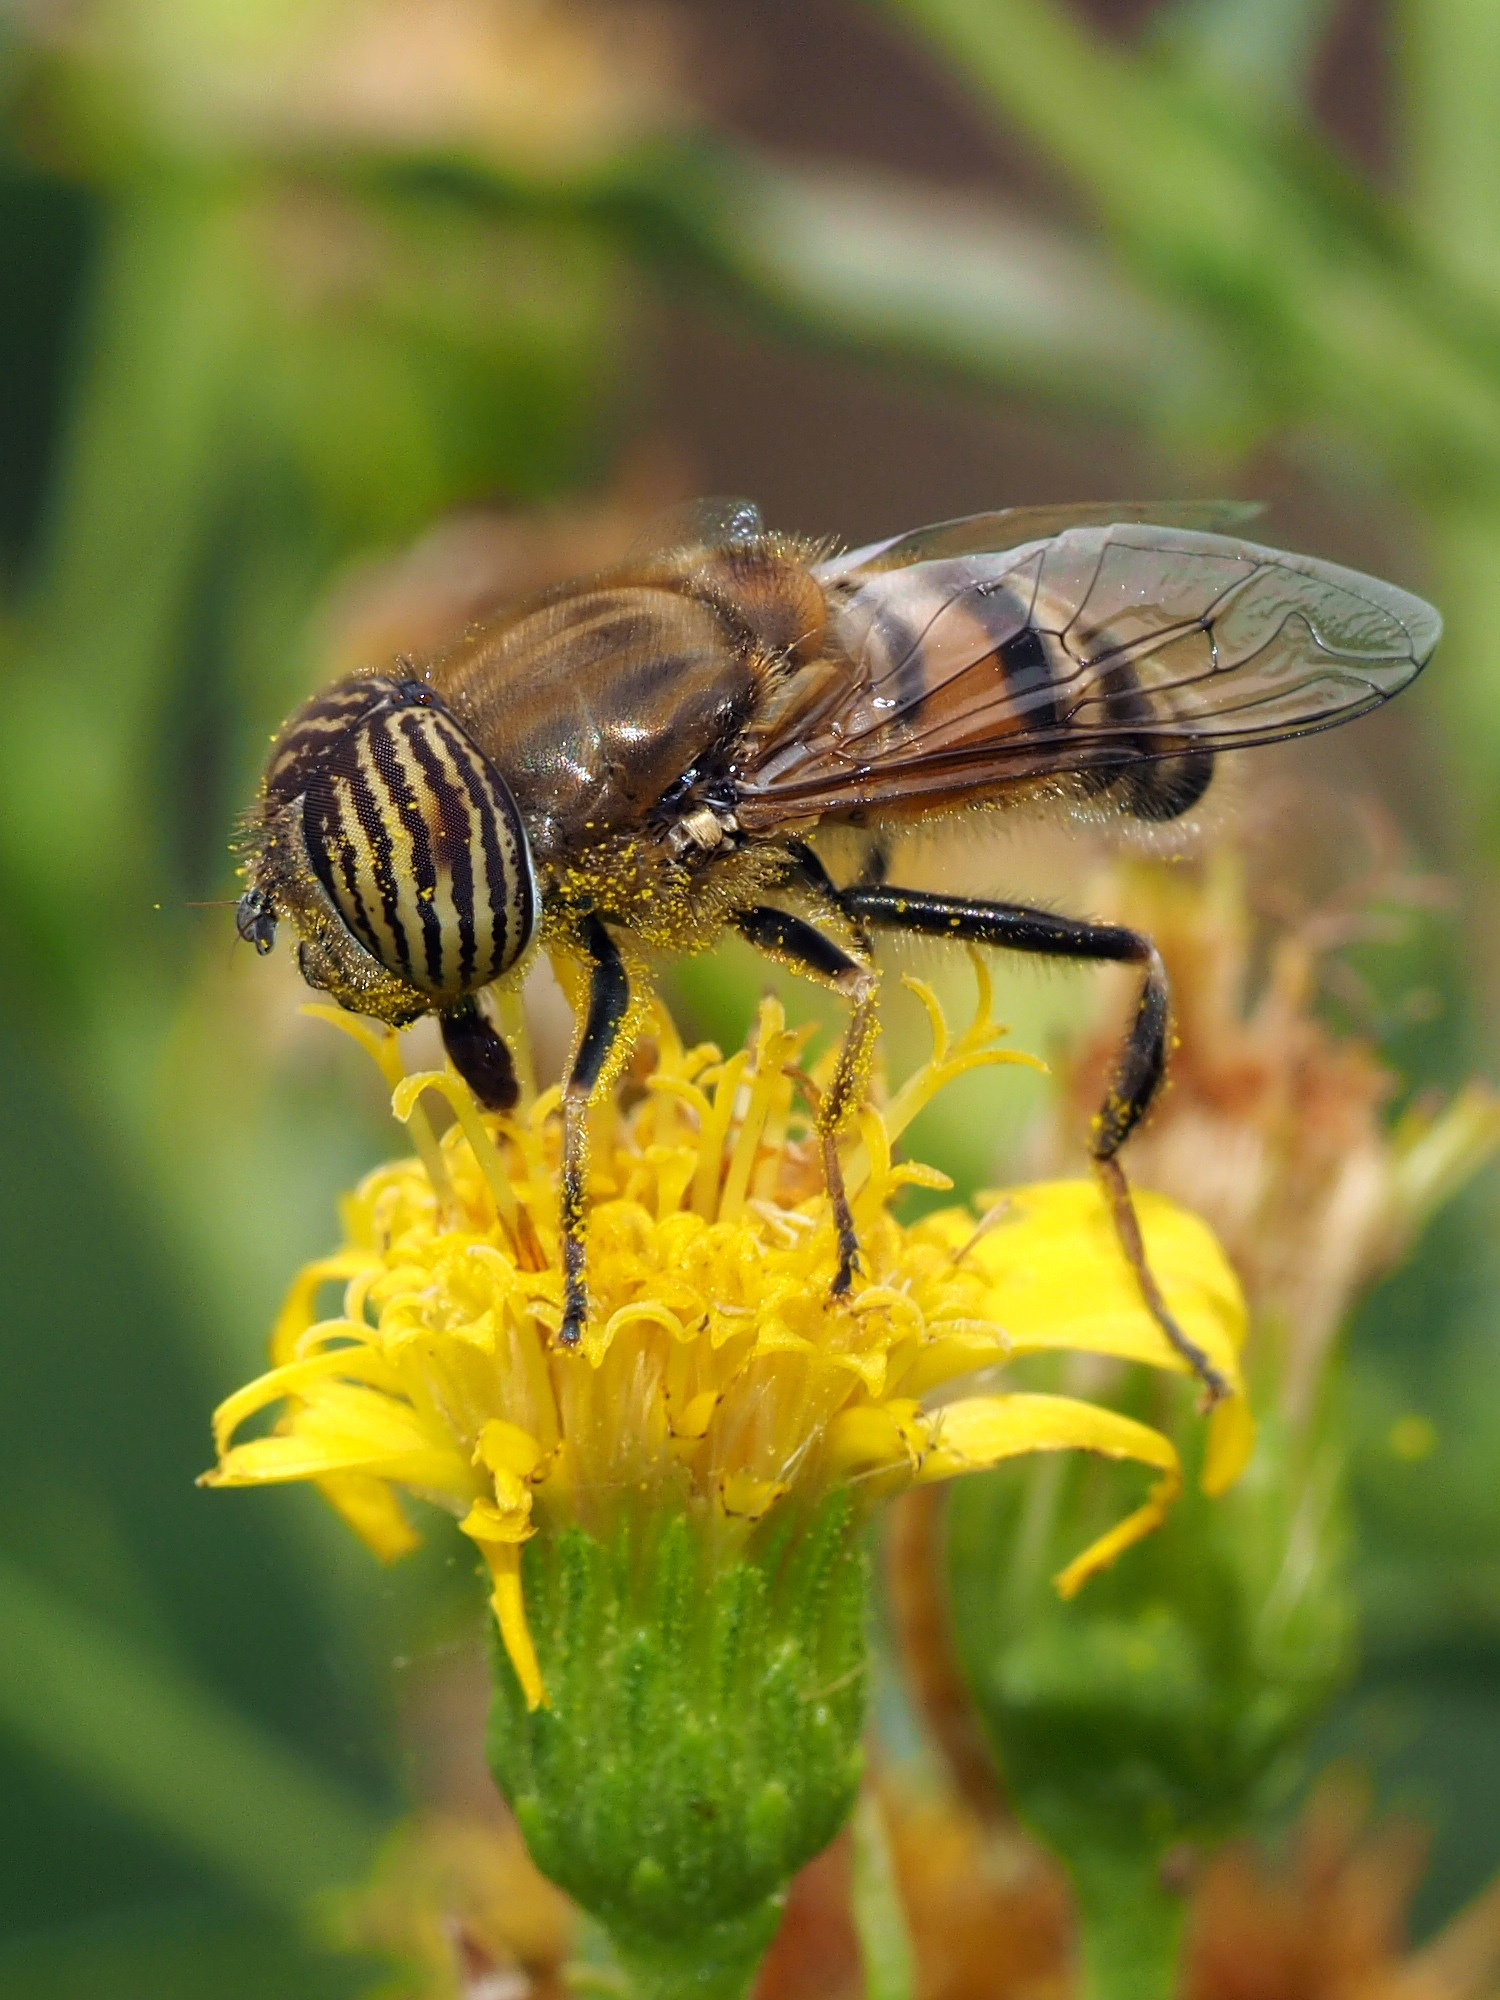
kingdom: Animalia
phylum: Arthropoda
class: Insecta
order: Diptera
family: Syrphidae
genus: Eristalinus
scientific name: Eristalinus taeniops
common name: Syrphid fly
